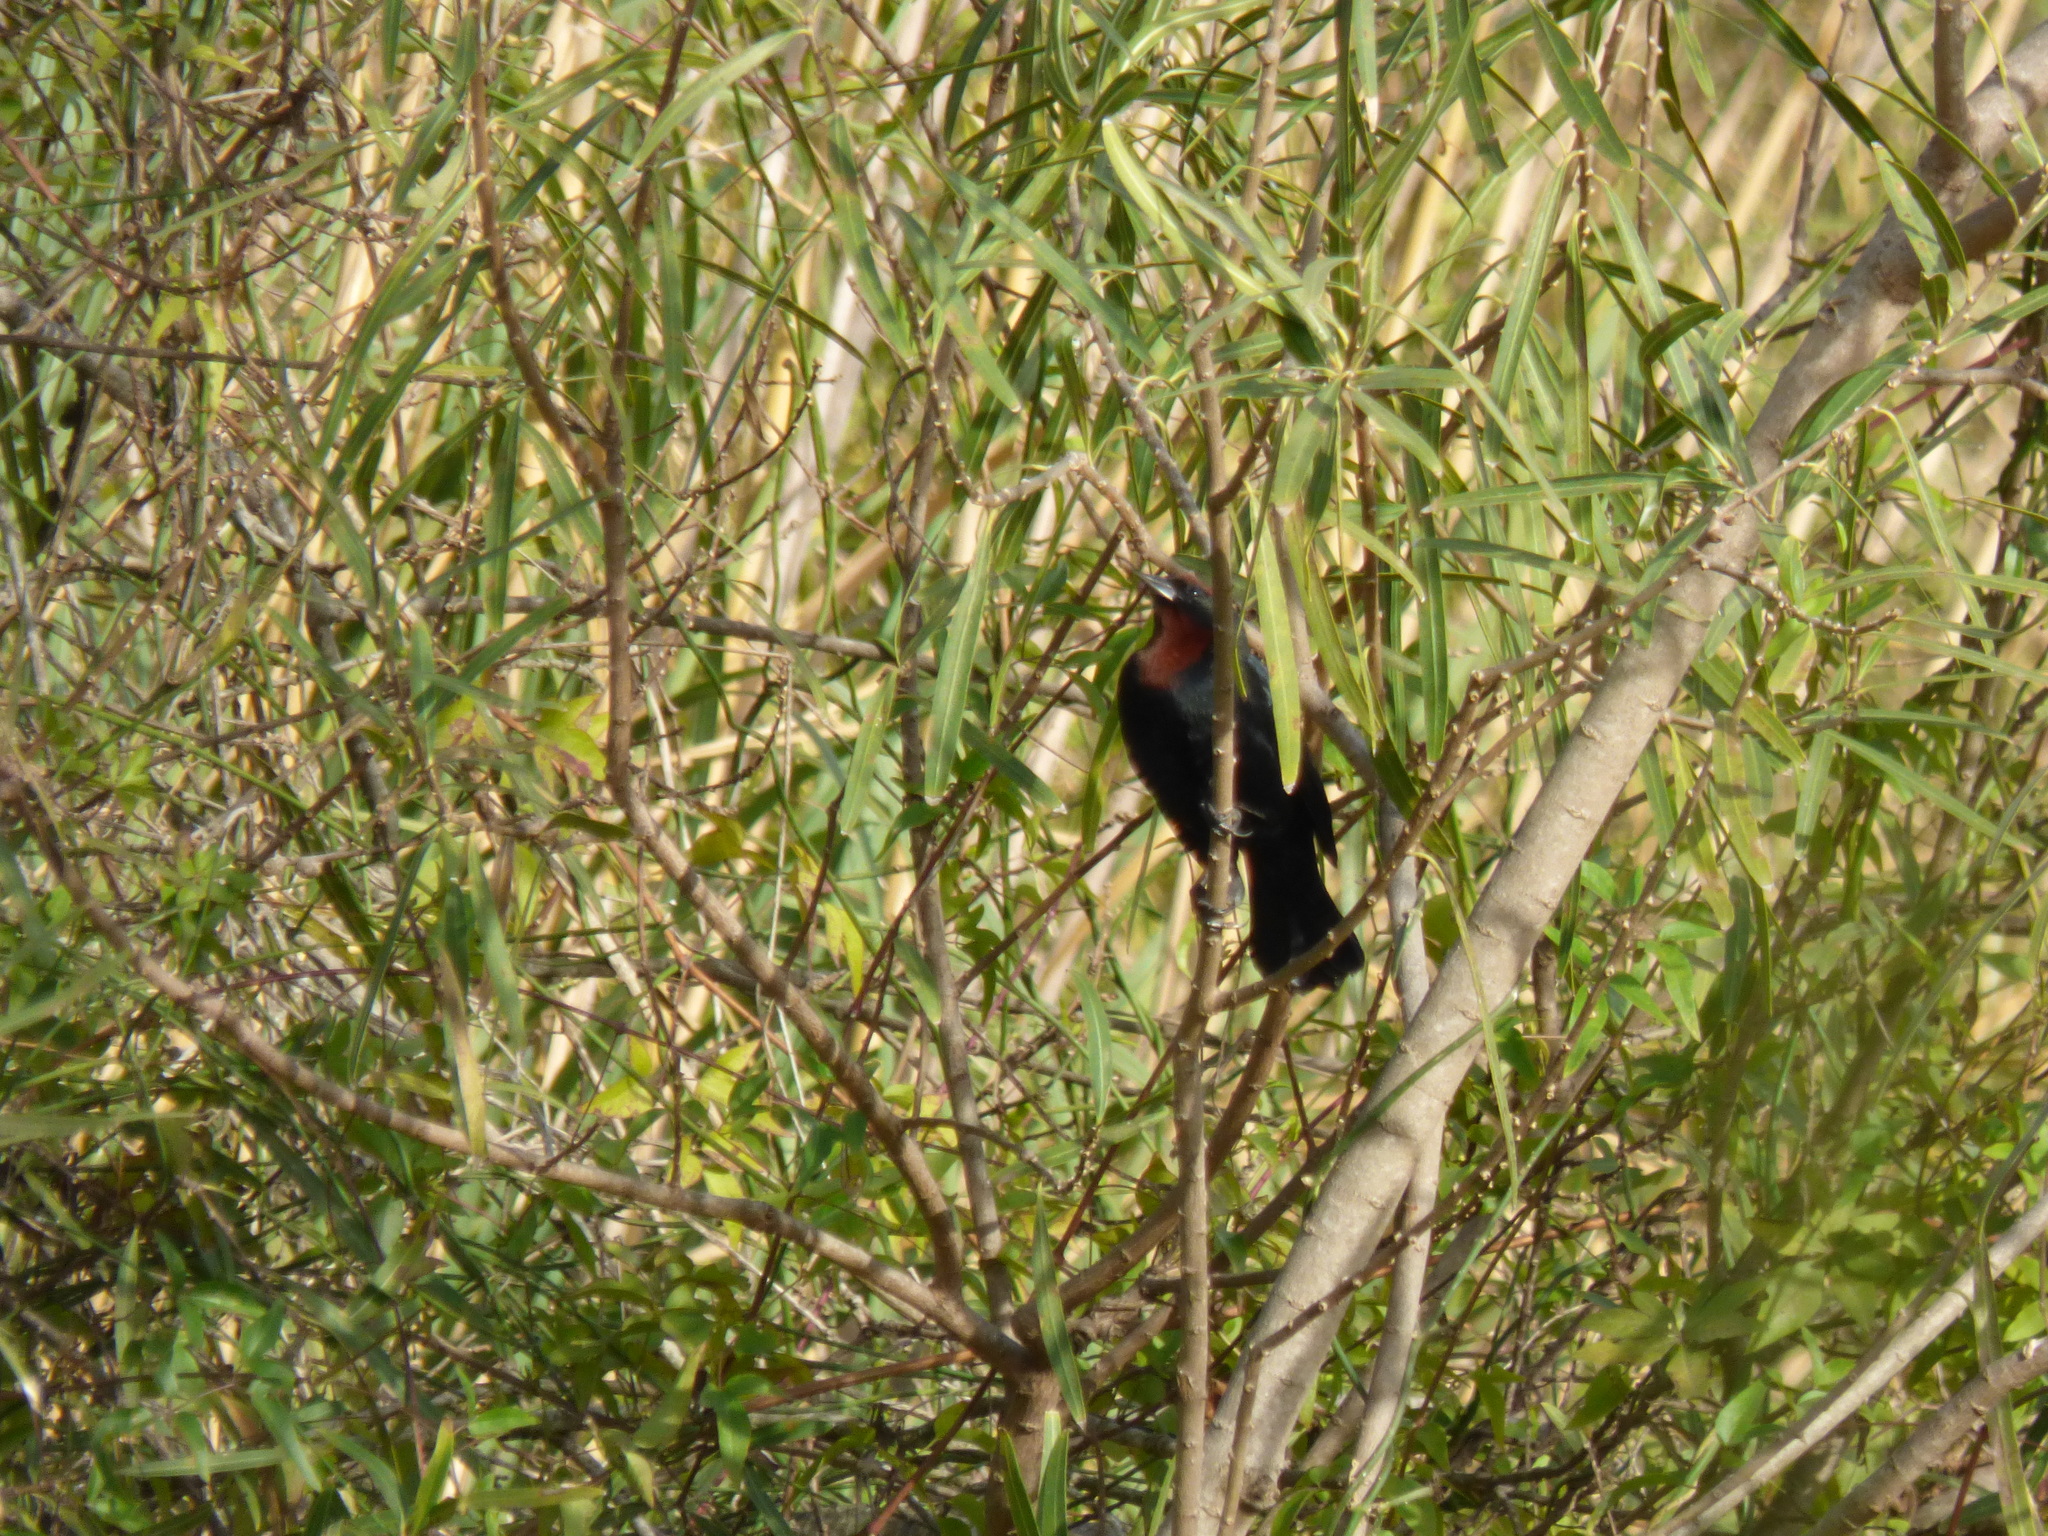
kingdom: Animalia
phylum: Chordata
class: Aves
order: Passeriformes
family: Icteridae
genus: Chrysomus
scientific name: Chrysomus ruficapillus
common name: Chestnut-capped blackbird
